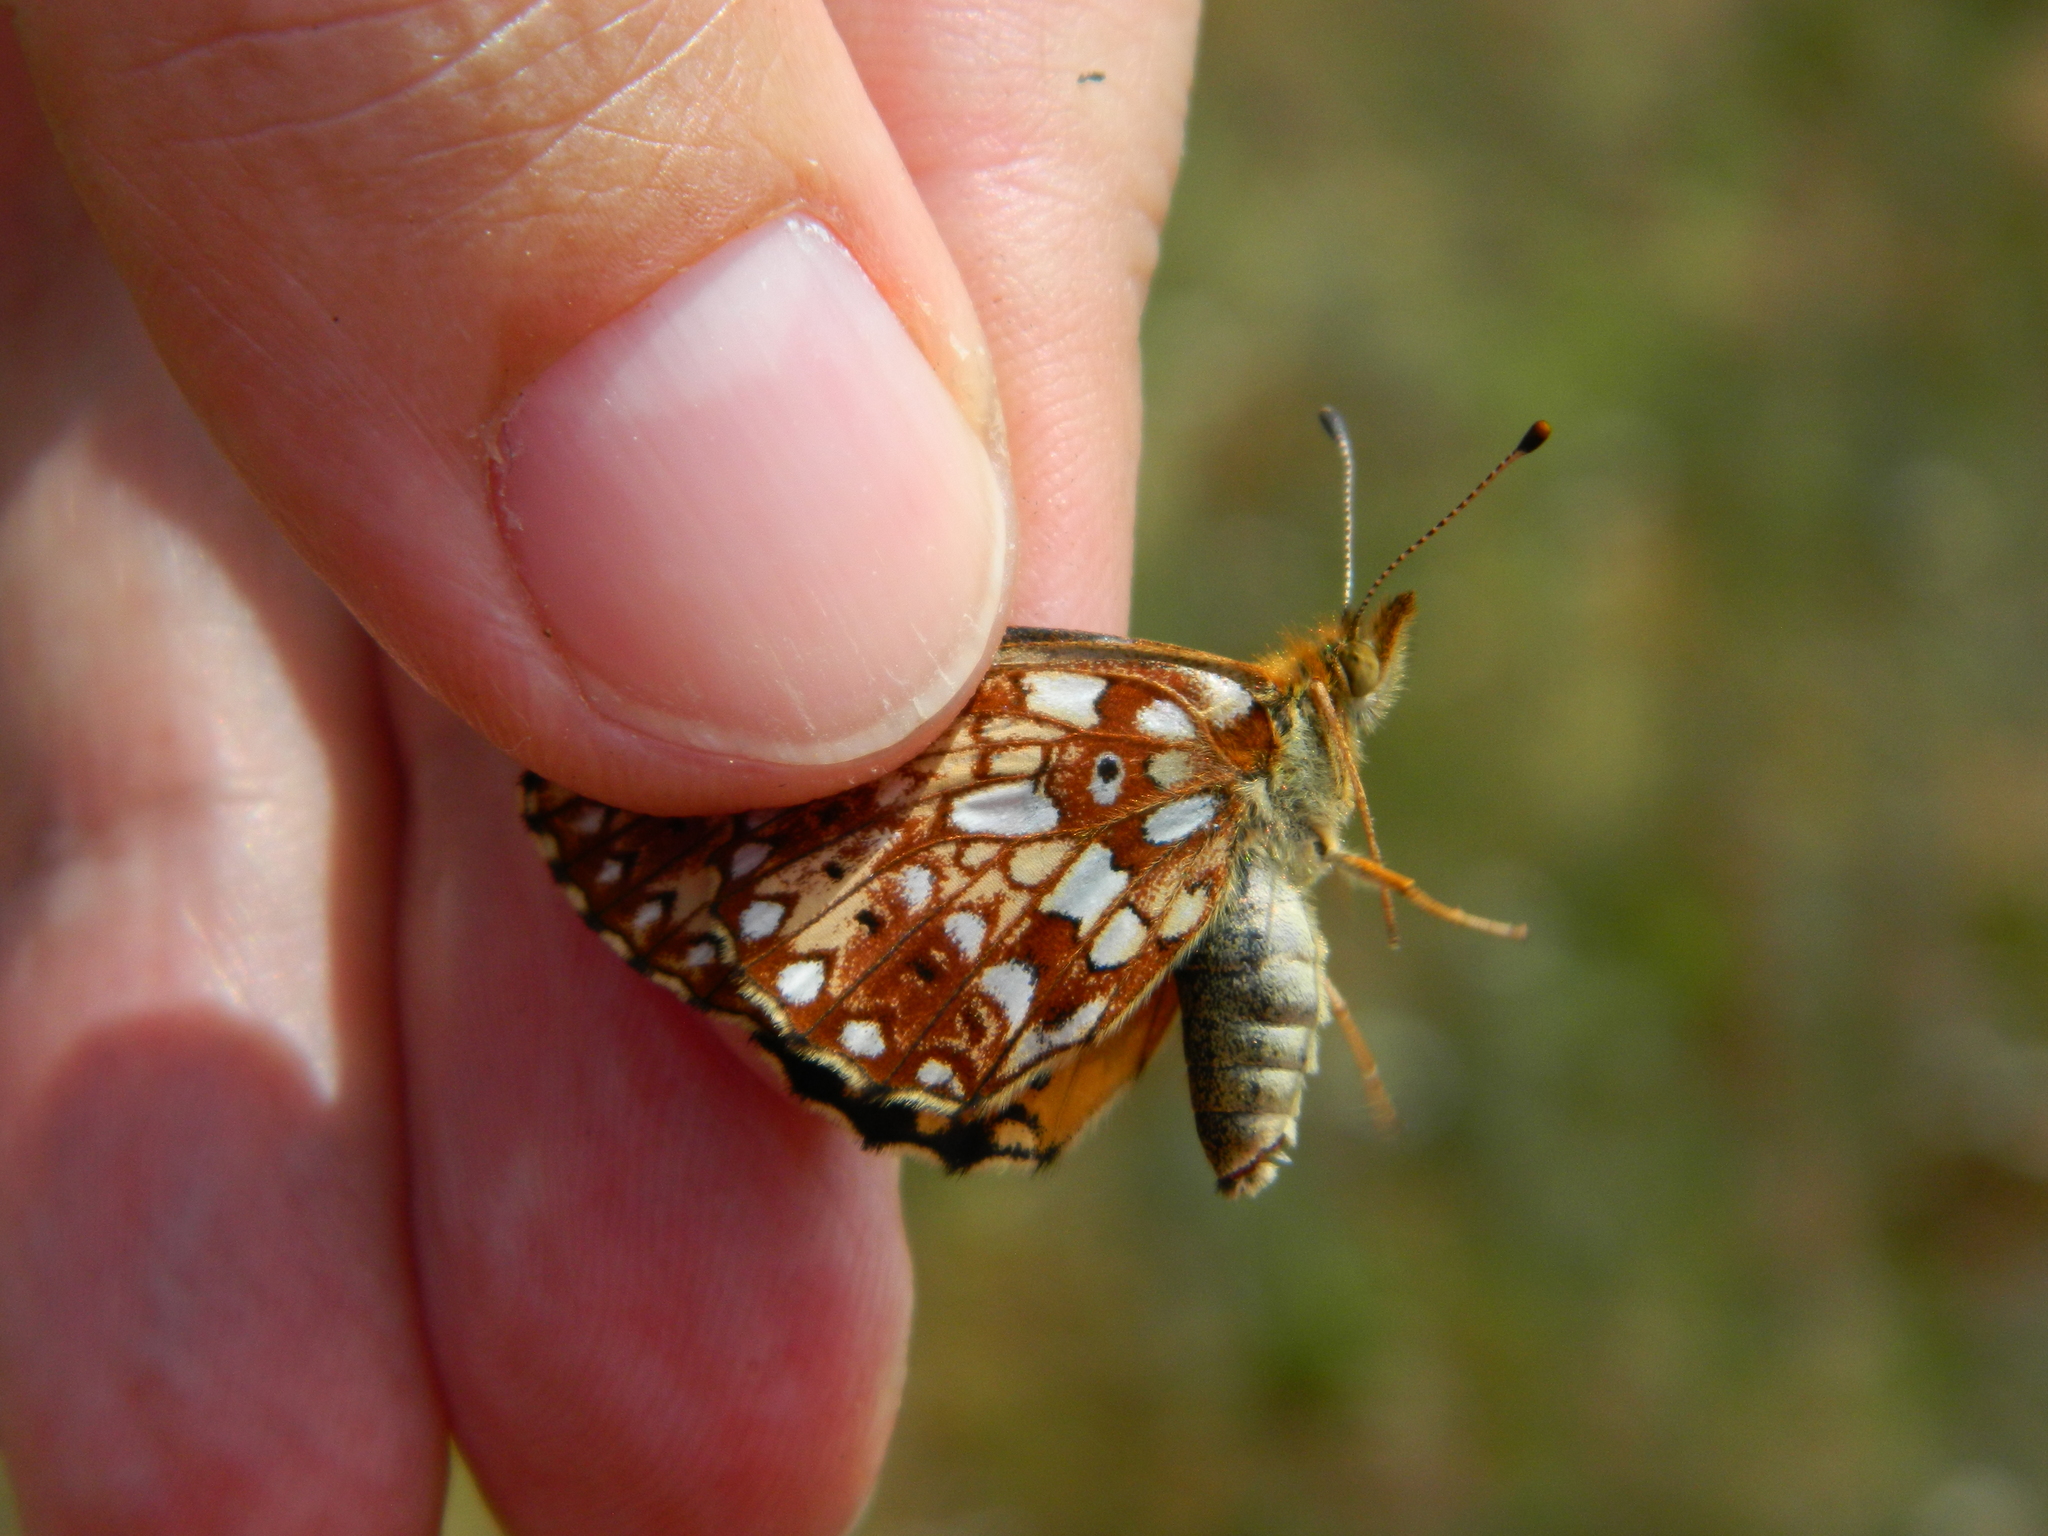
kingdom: Animalia
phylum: Arthropoda
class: Insecta
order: Lepidoptera
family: Nymphalidae
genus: Boloria
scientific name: Boloria
